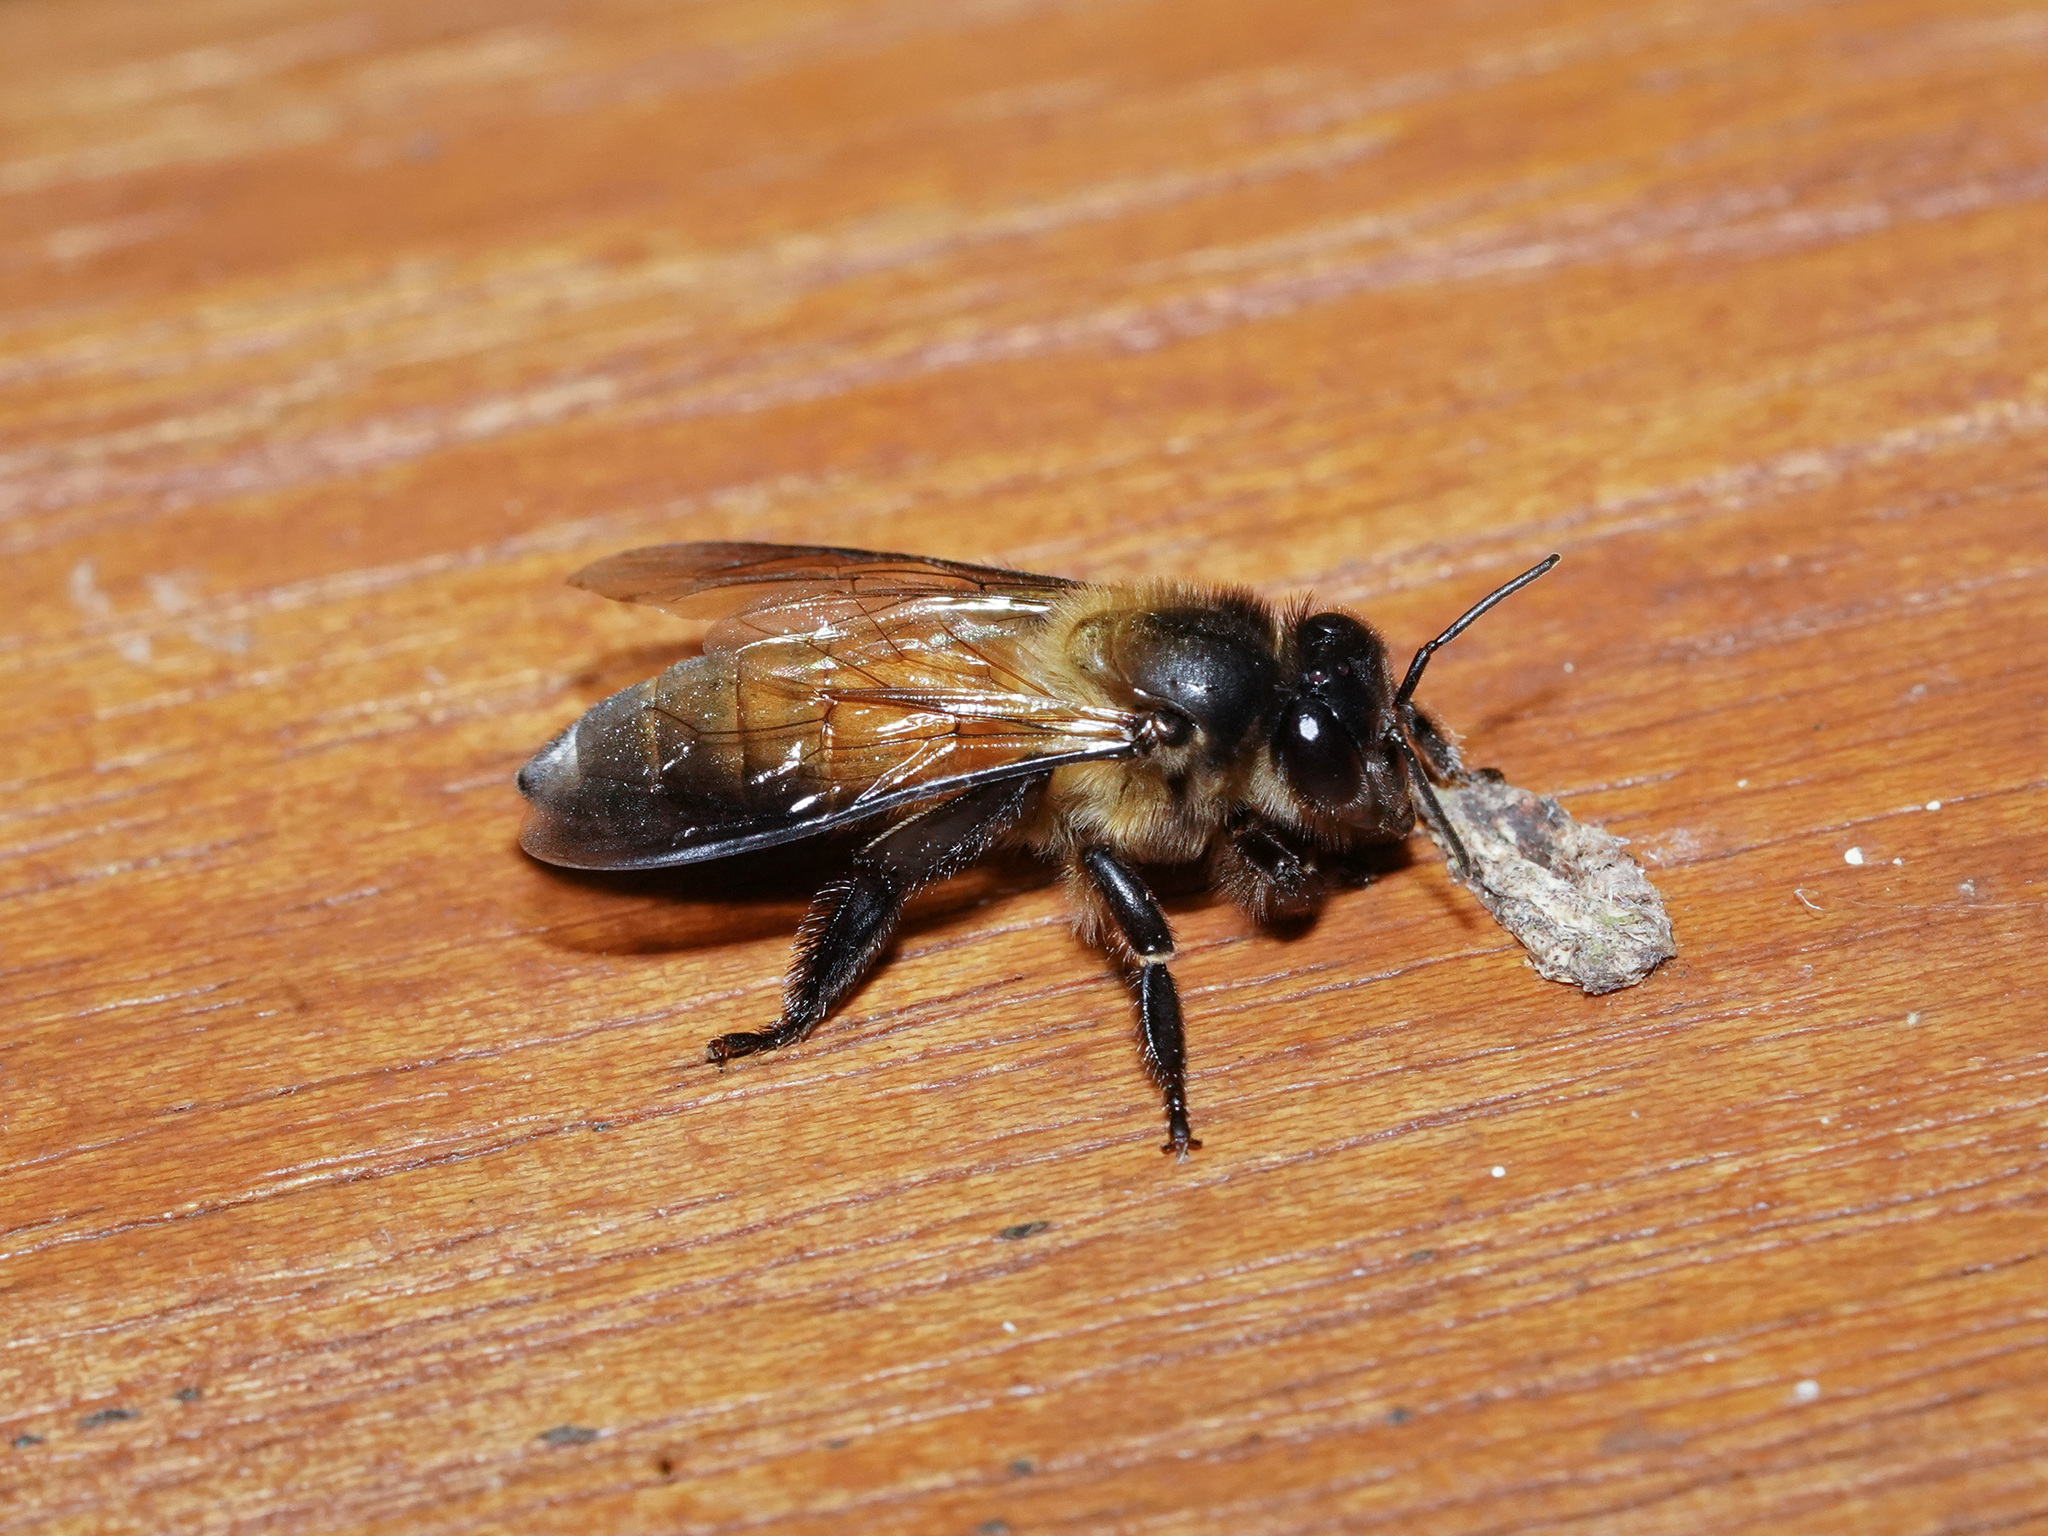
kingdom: Animalia
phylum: Arthropoda
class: Insecta
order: Hymenoptera
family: Apidae
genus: Apis
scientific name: Apis dorsata
